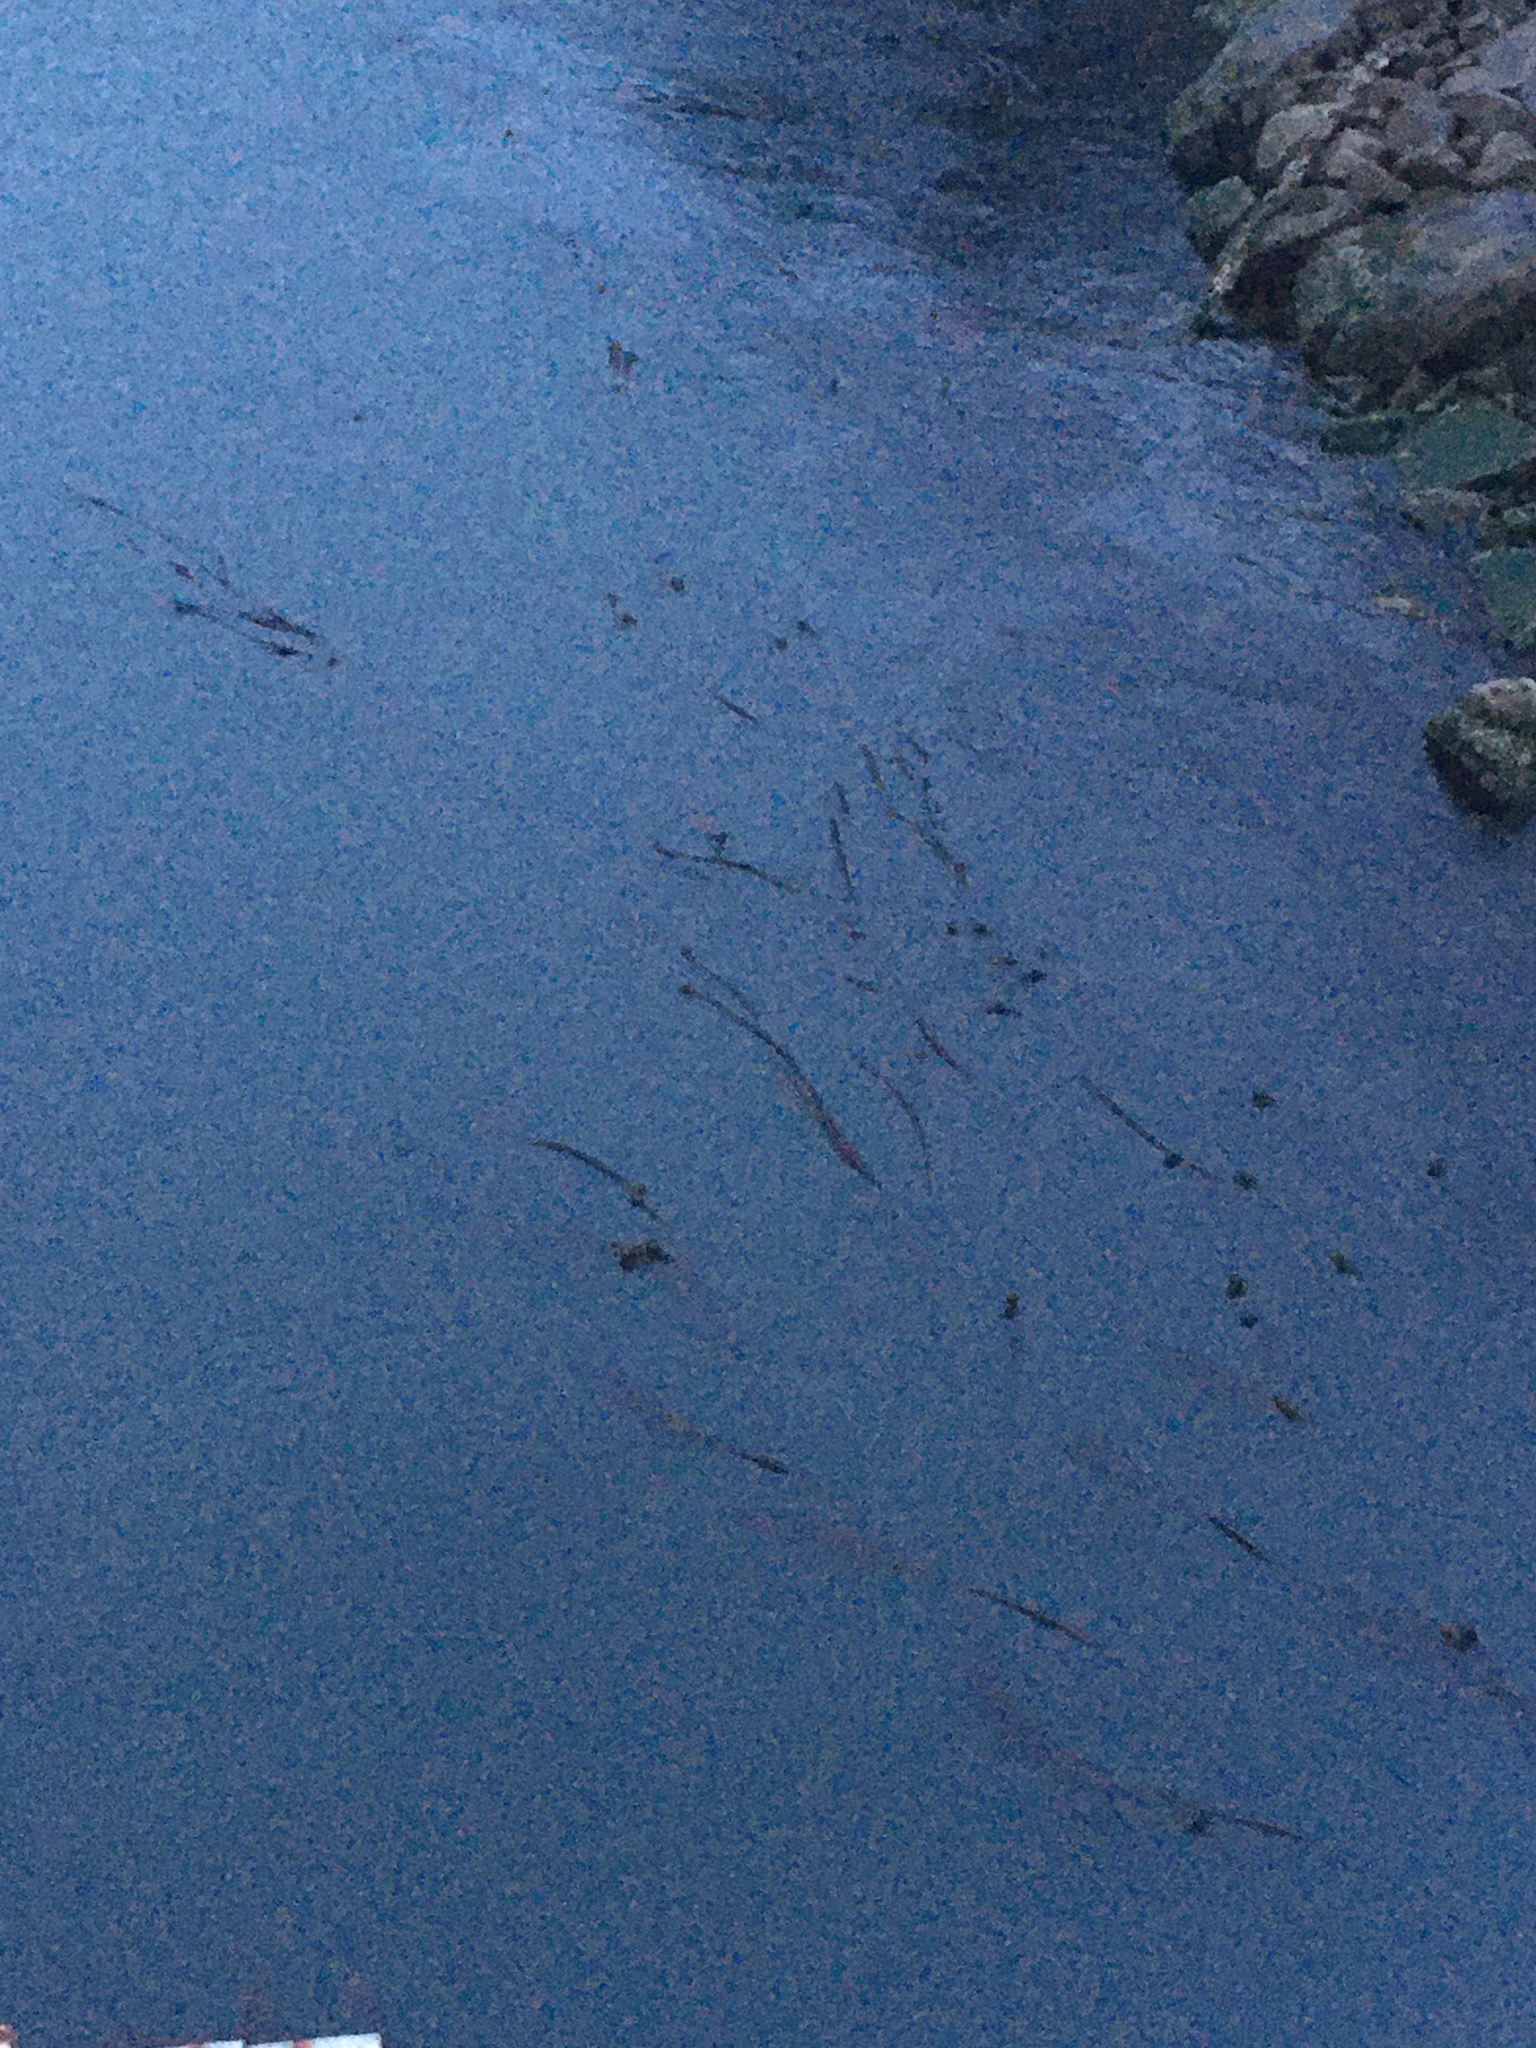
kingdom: Chromista
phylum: Ochrophyta
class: Phaeophyceae
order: Laminariales
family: Laminariaceae
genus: Nereocystis
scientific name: Nereocystis luetkeana
